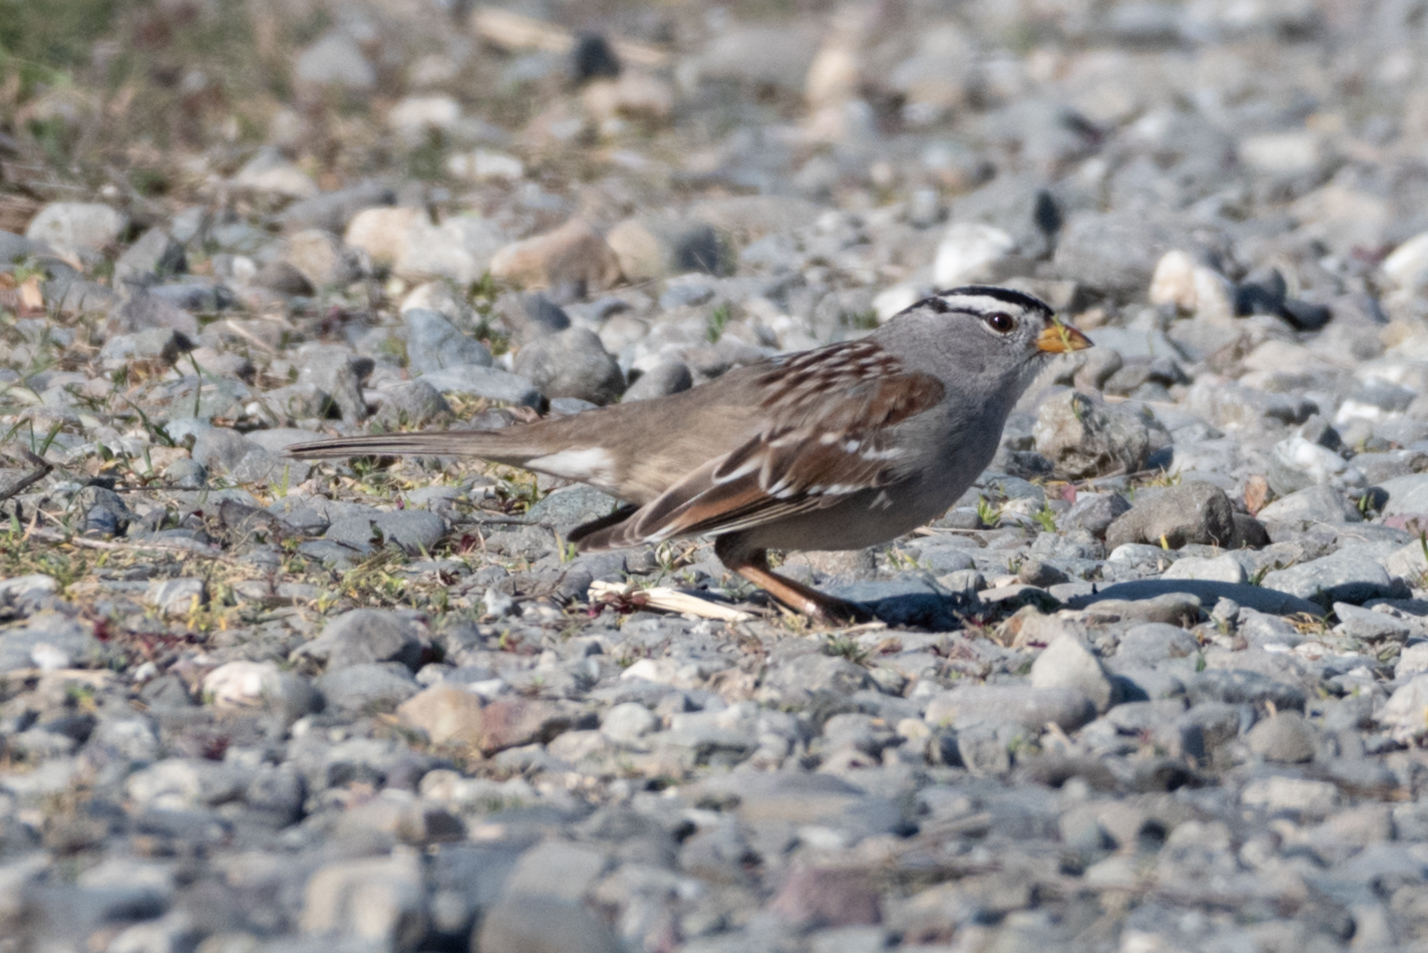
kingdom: Animalia
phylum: Chordata
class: Aves
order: Passeriformes
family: Passerellidae
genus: Zonotrichia
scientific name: Zonotrichia leucophrys
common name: White-crowned sparrow
